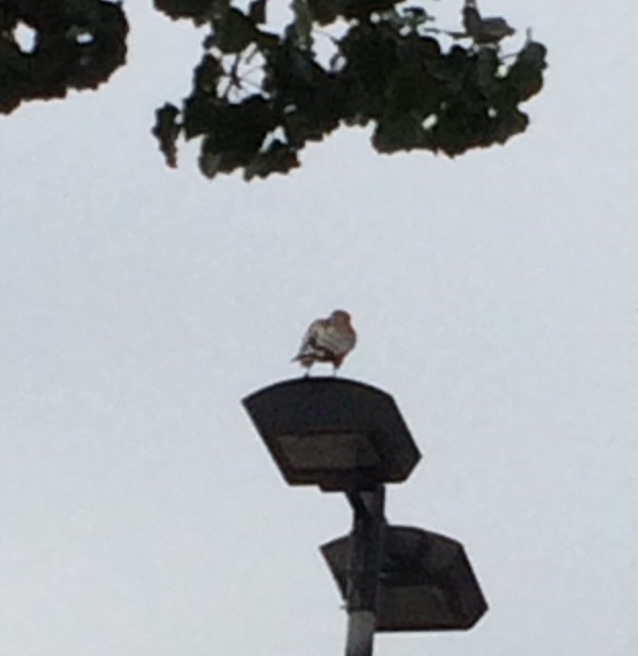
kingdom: Animalia
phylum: Chordata
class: Aves
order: Accipitriformes
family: Accipitridae
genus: Buteo
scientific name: Buteo lineatus
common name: Red-shouldered hawk
